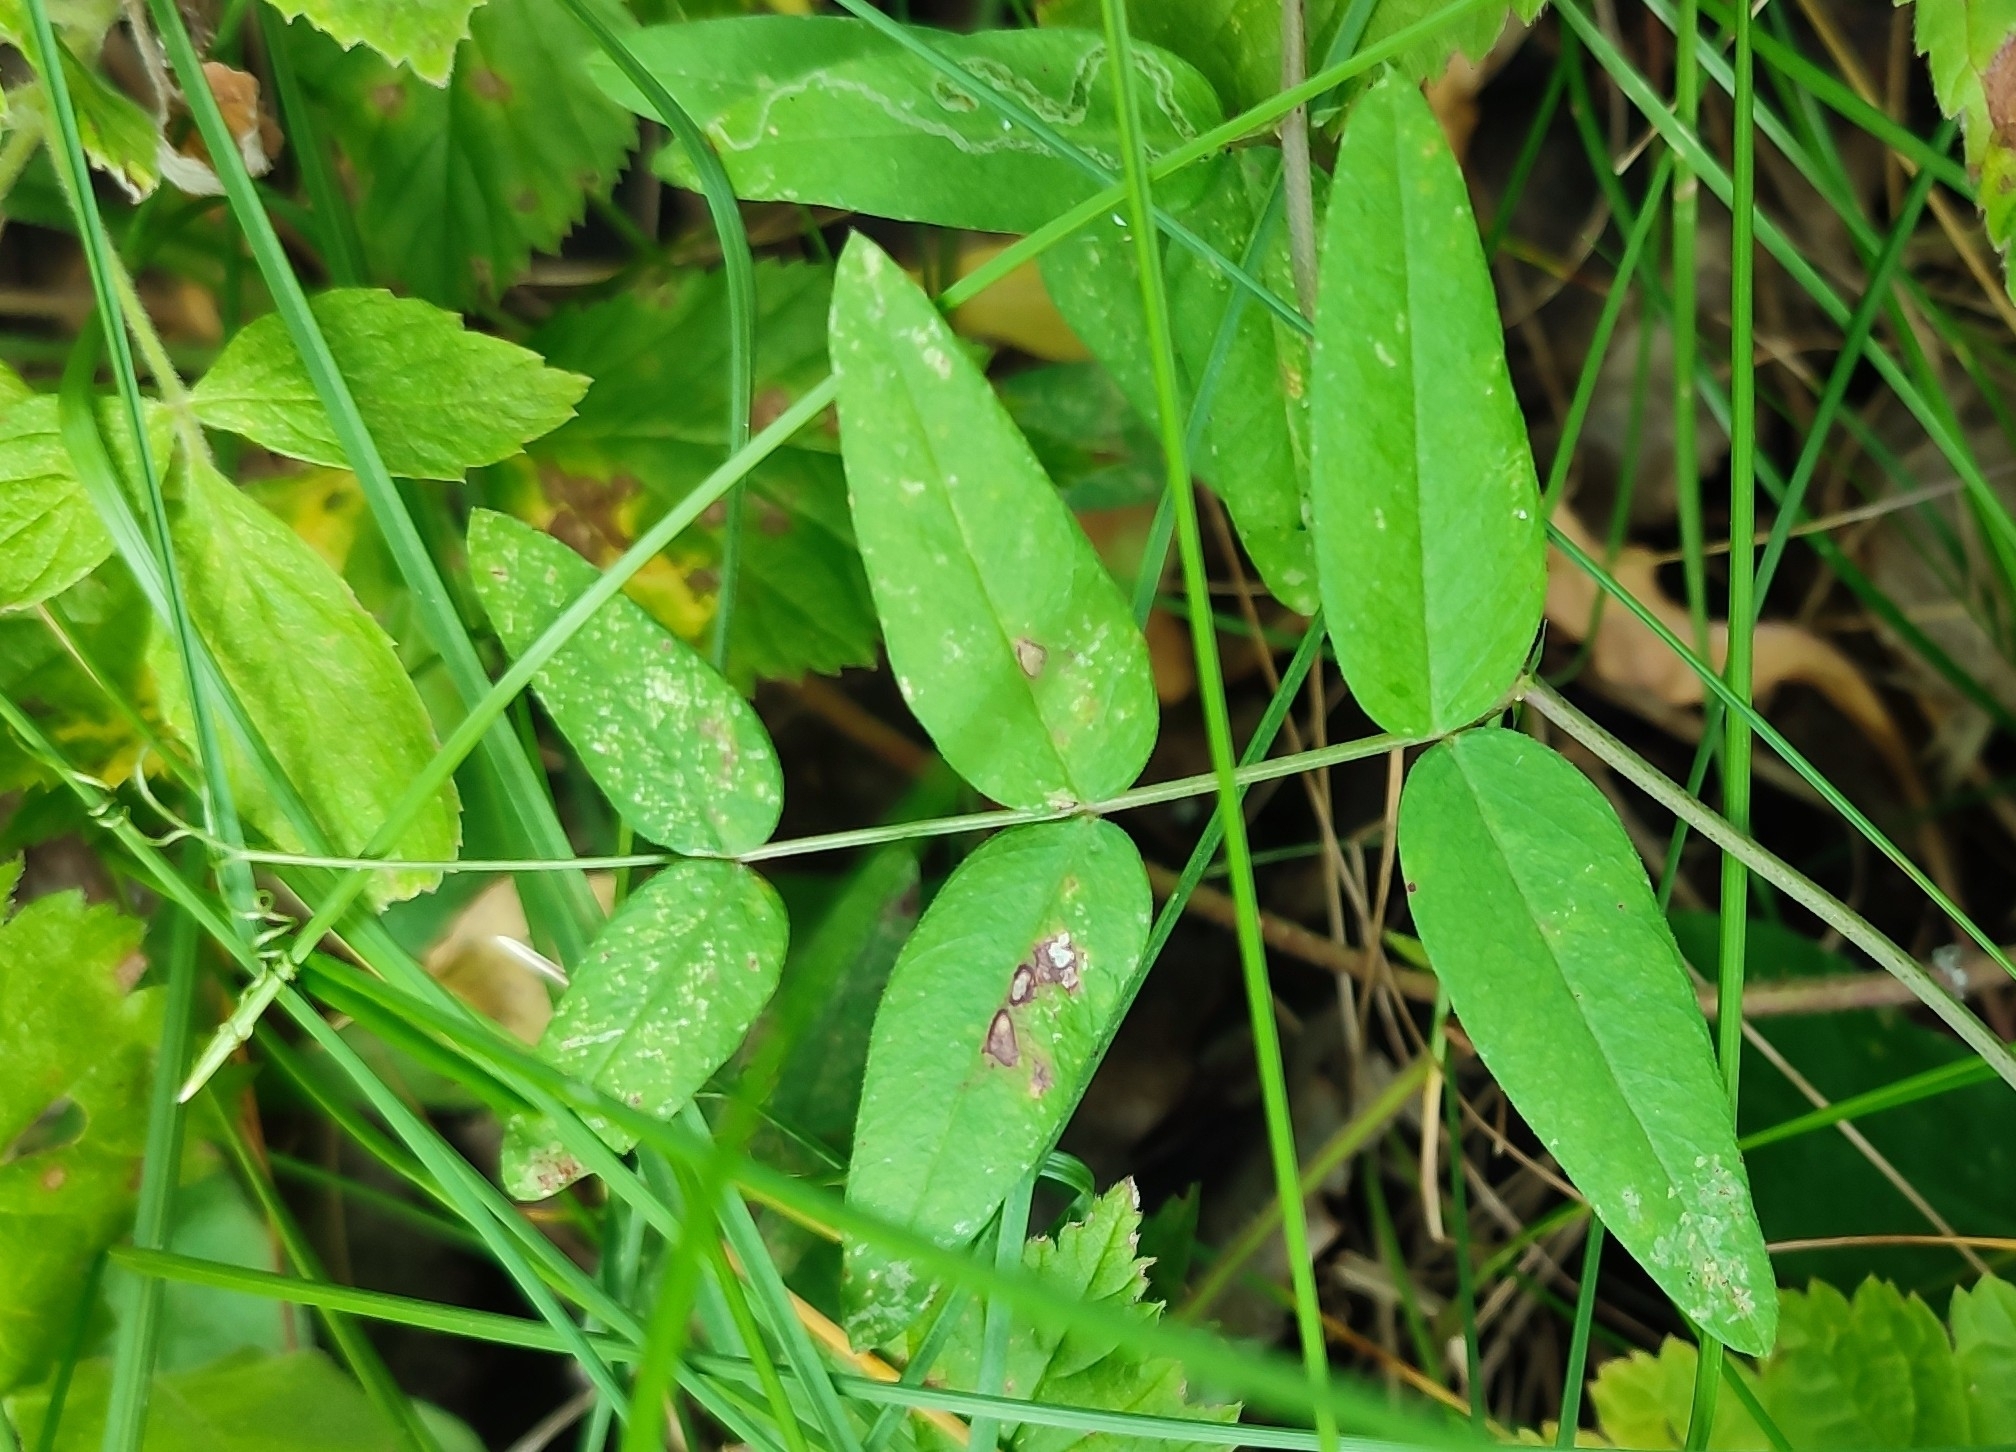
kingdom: Plantae
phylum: Tracheophyta
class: Magnoliopsida
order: Fabales
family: Fabaceae
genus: Vicia
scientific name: Vicia sepium
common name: Bush vetch
